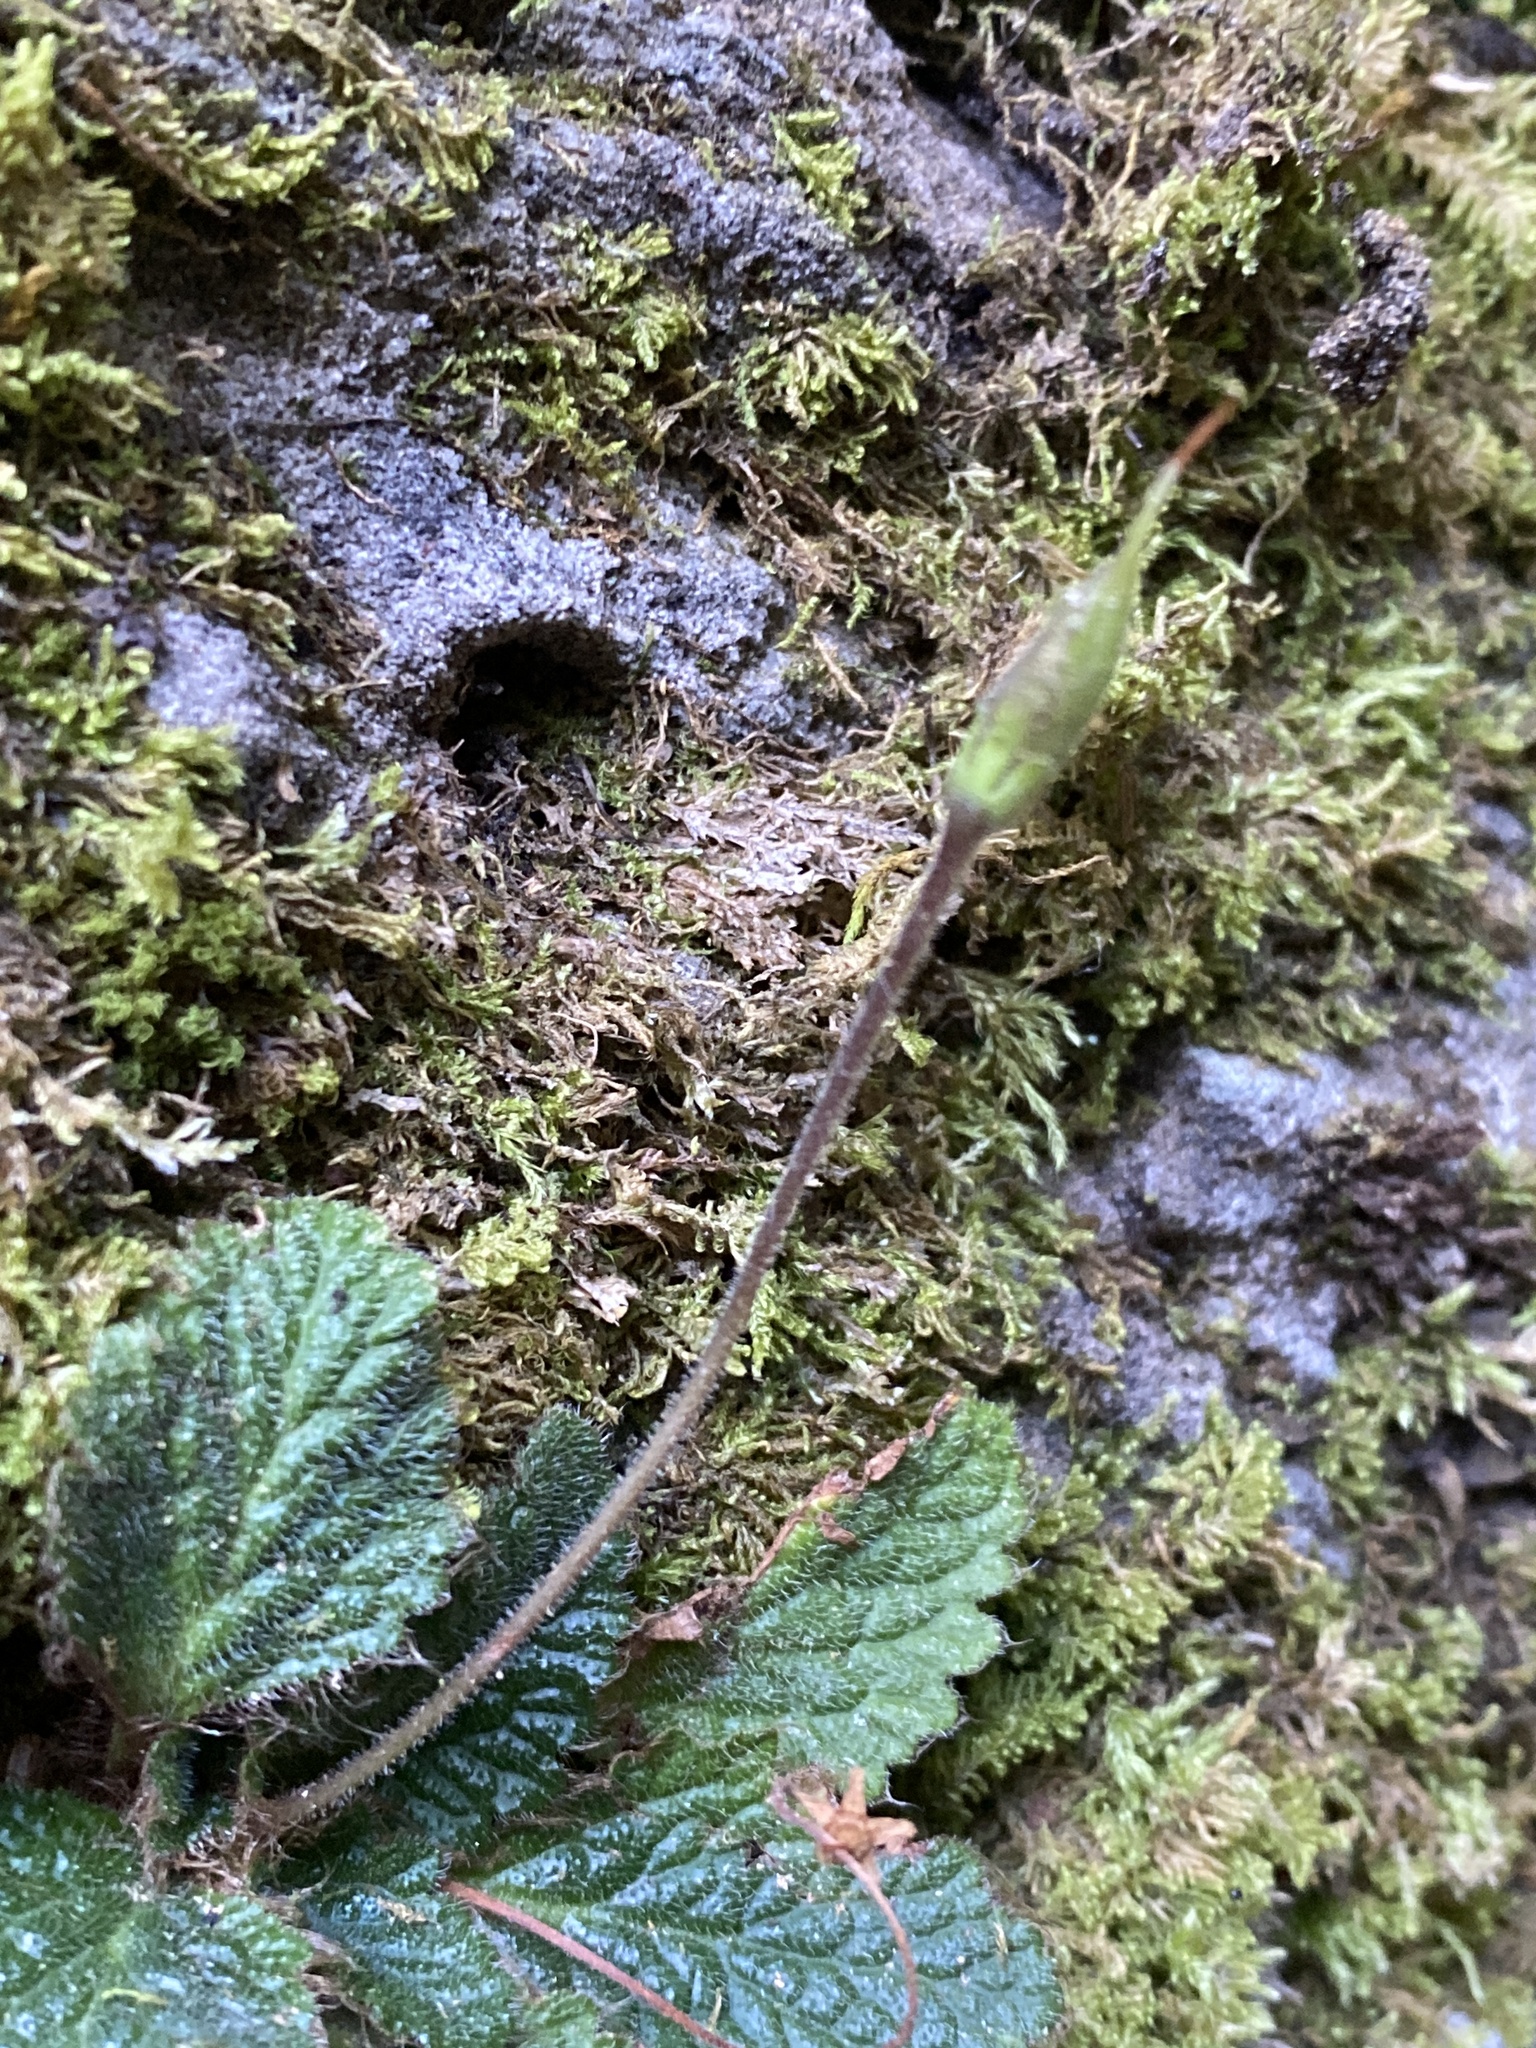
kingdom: Plantae
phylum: Tracheophyta
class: Magnoliopsida
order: Lamiales
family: Gesneriaceae
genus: Ramonda
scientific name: Ramonda myconi
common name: Pyrenean-violet
